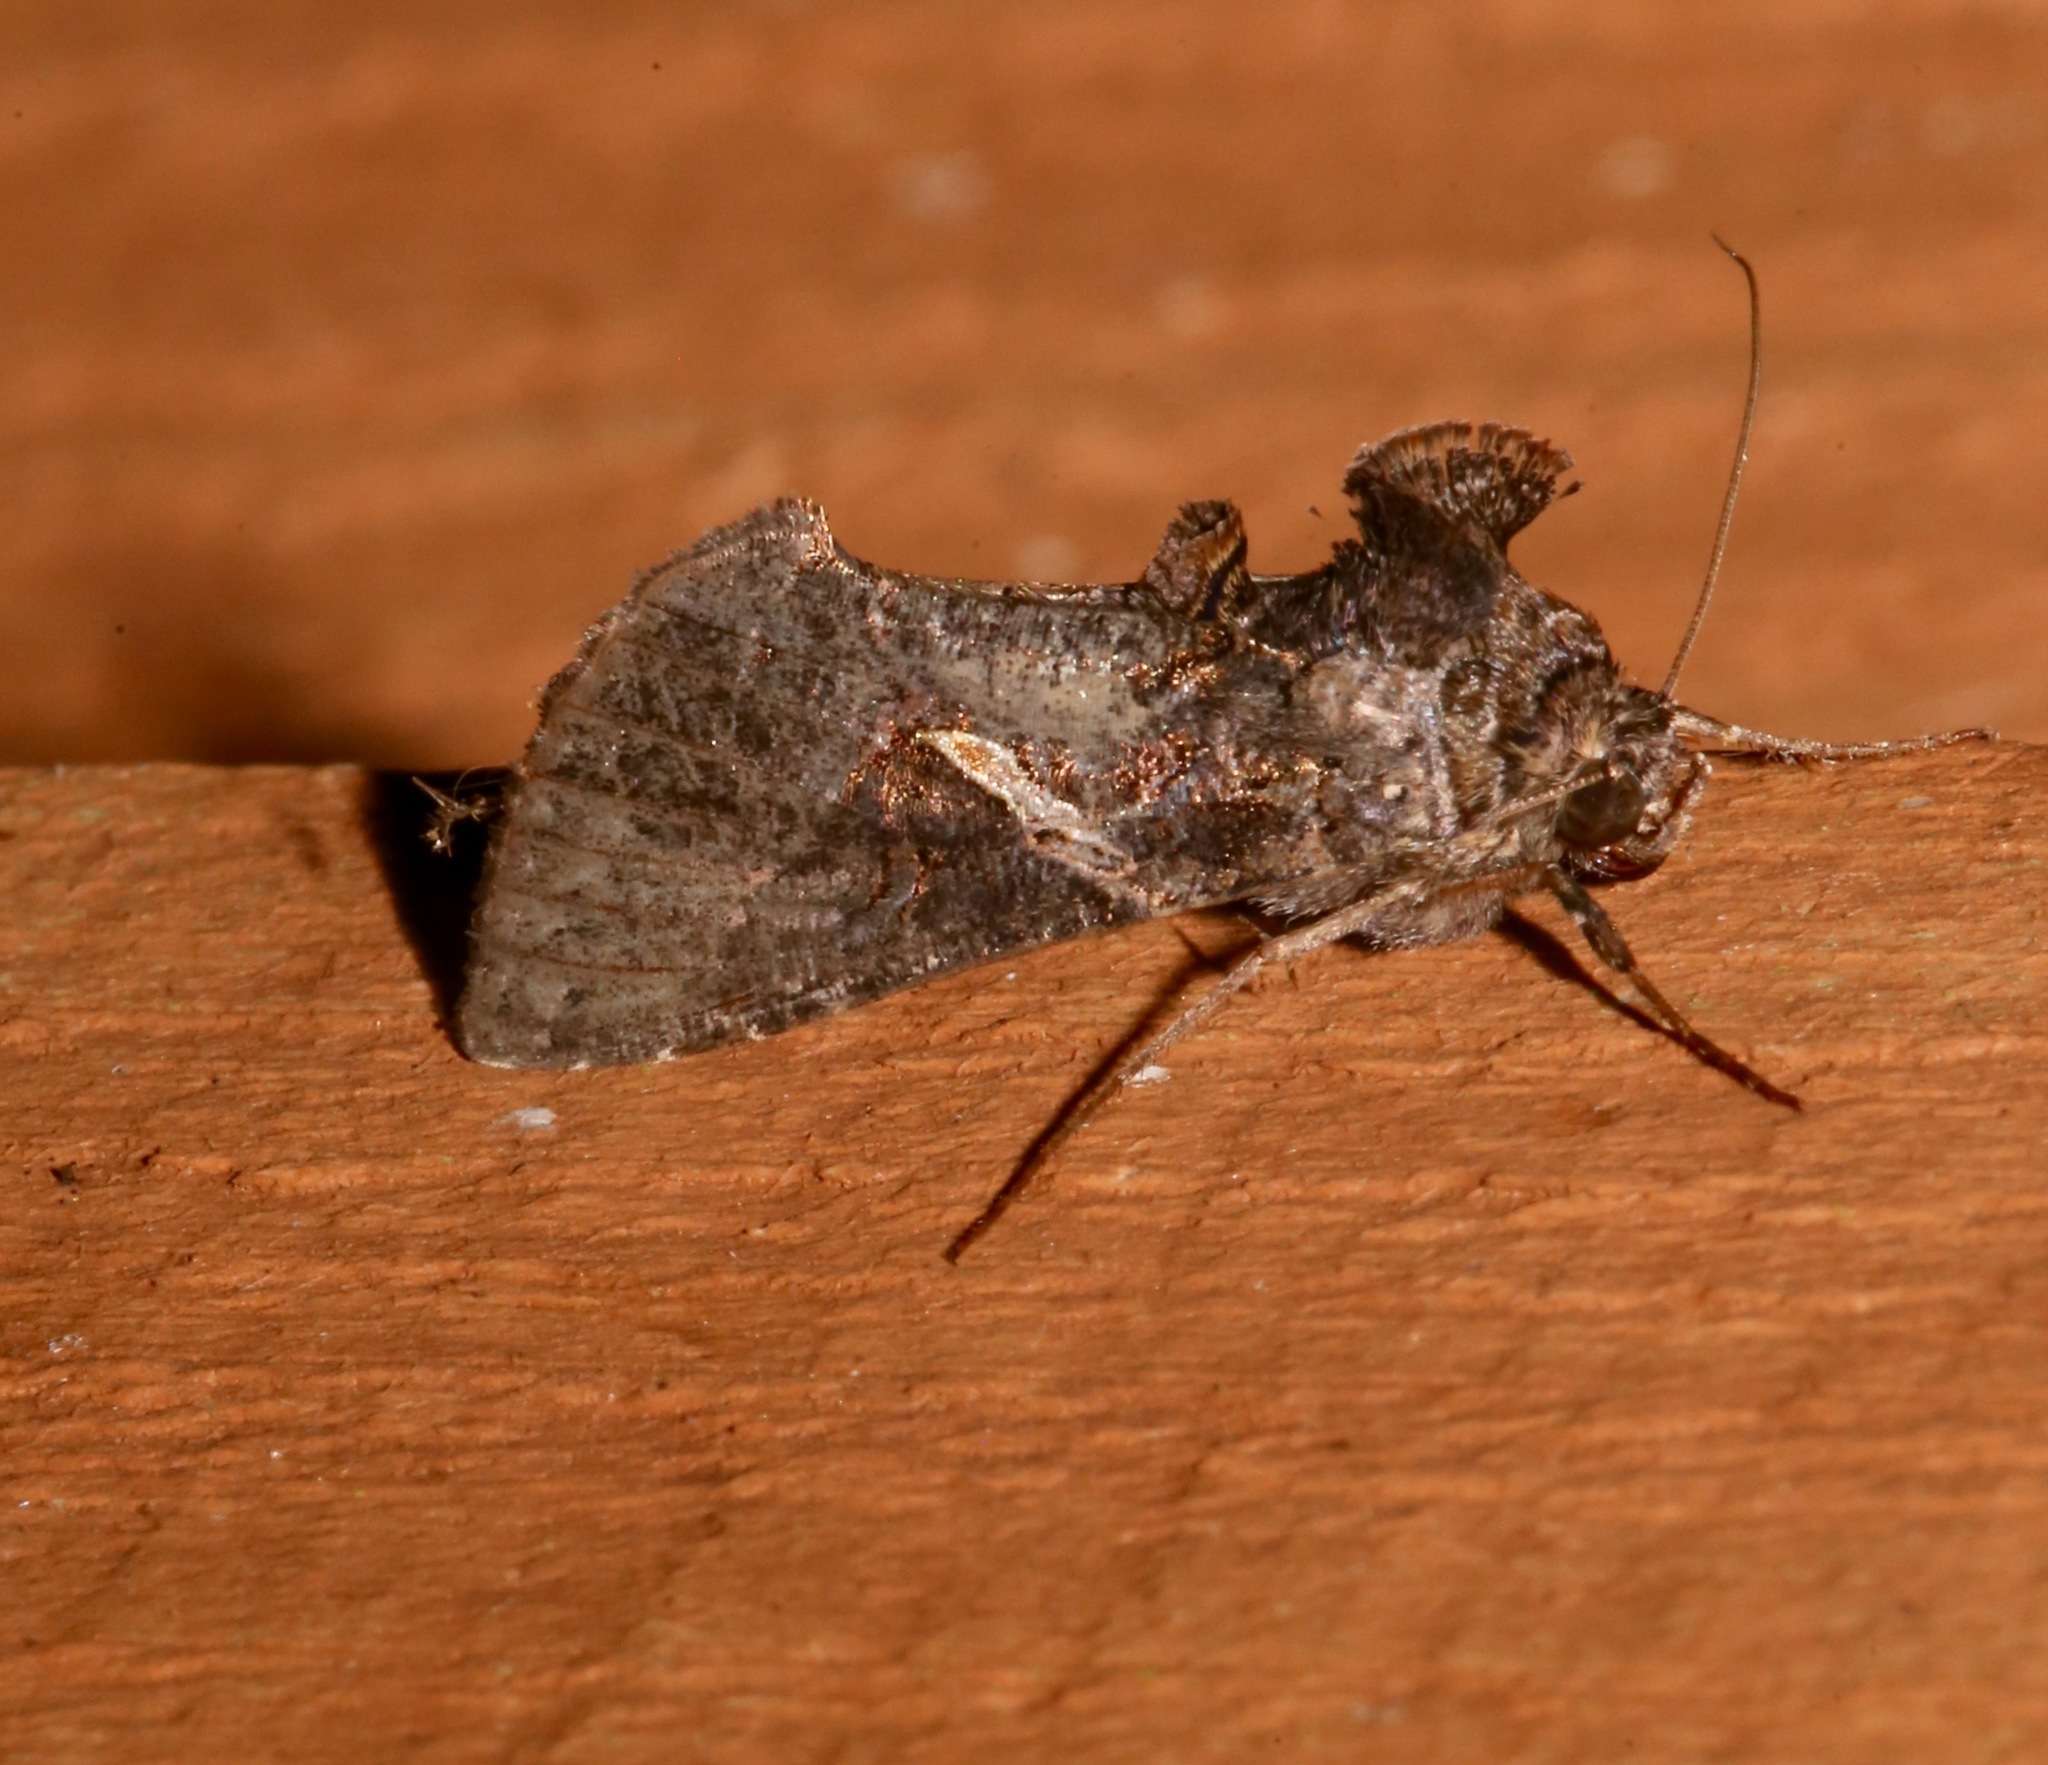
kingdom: Animalia
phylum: Arthropoda
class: Insecta
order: Lepidoptera
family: Noctuidae
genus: Ctenoplusia
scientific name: Ctenoplusia oxygramma
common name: Sharp-stigma looper moth
